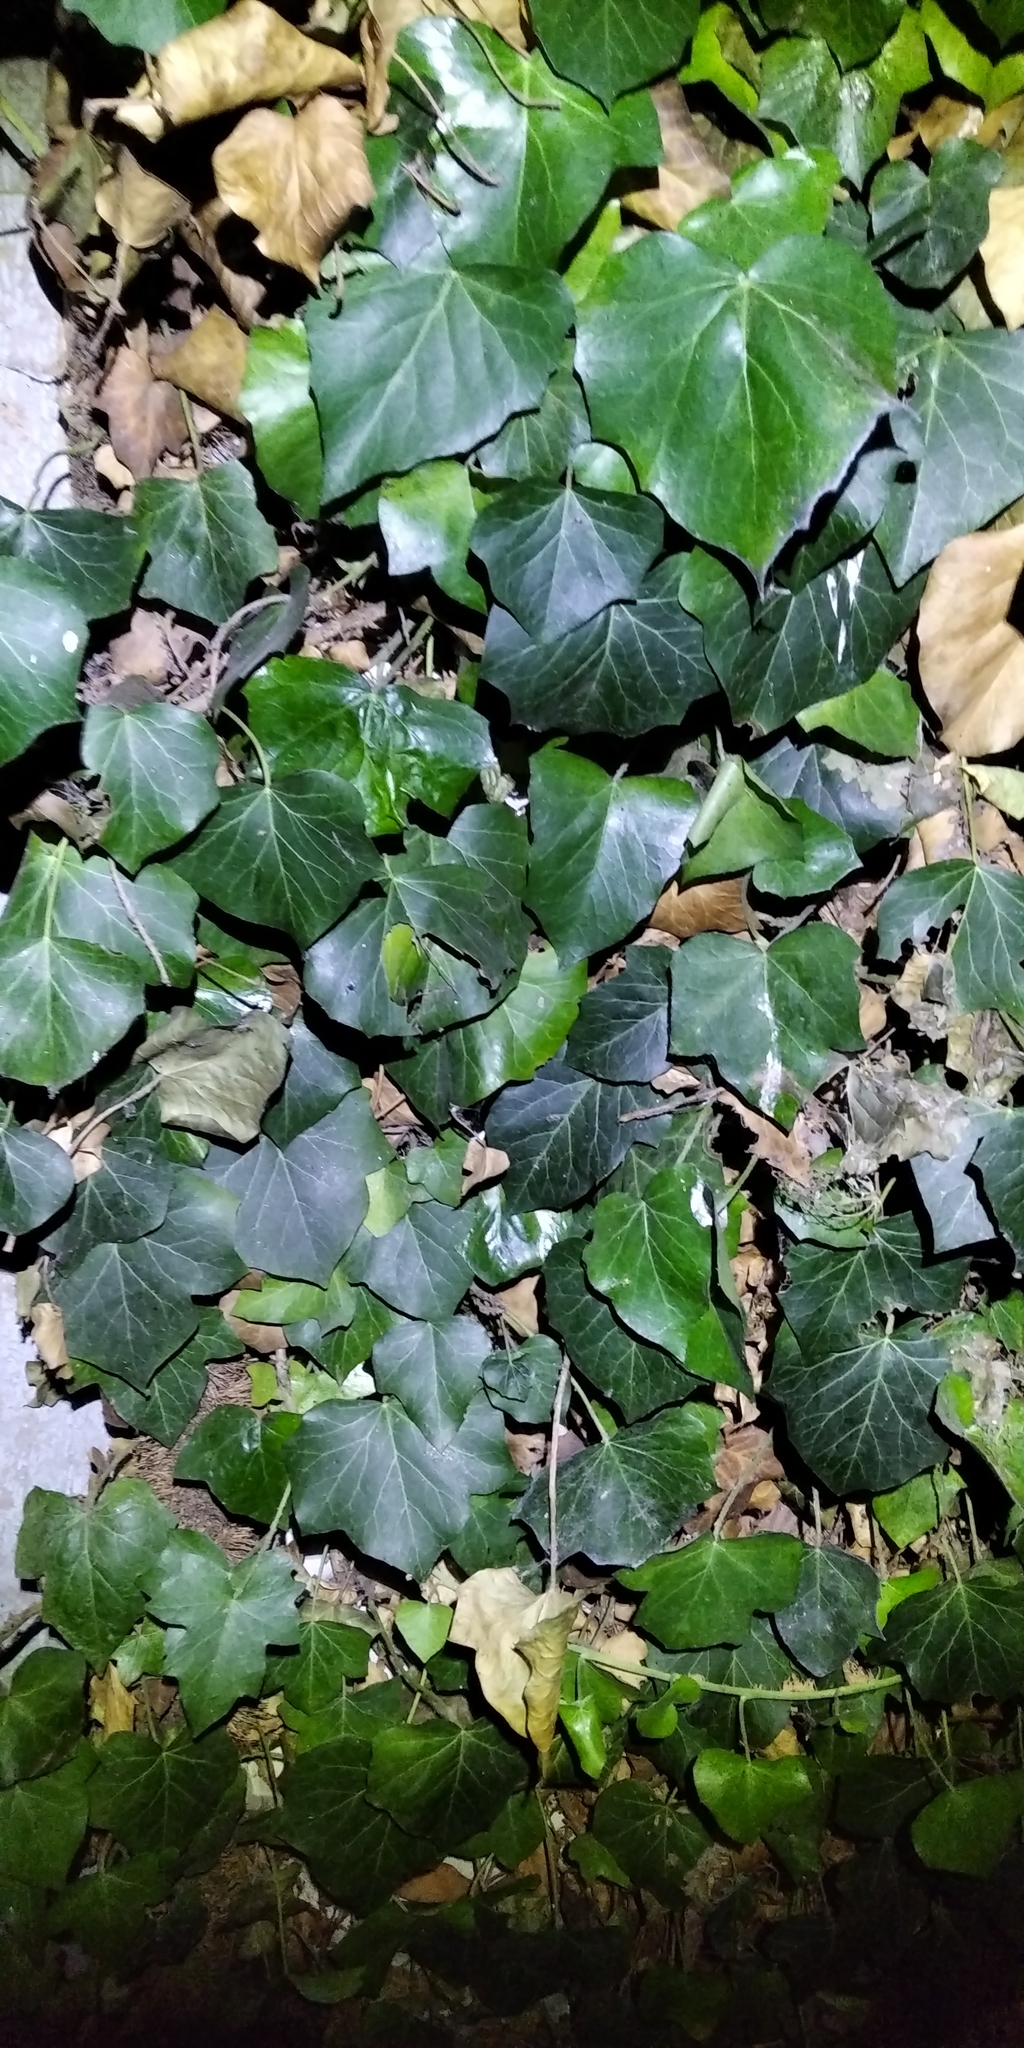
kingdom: Plantae
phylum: Tracheophyta
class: Magnoliopsida
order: Apiales
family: Araliaceae
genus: Hedera
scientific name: Hedera helix
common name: Ivy
